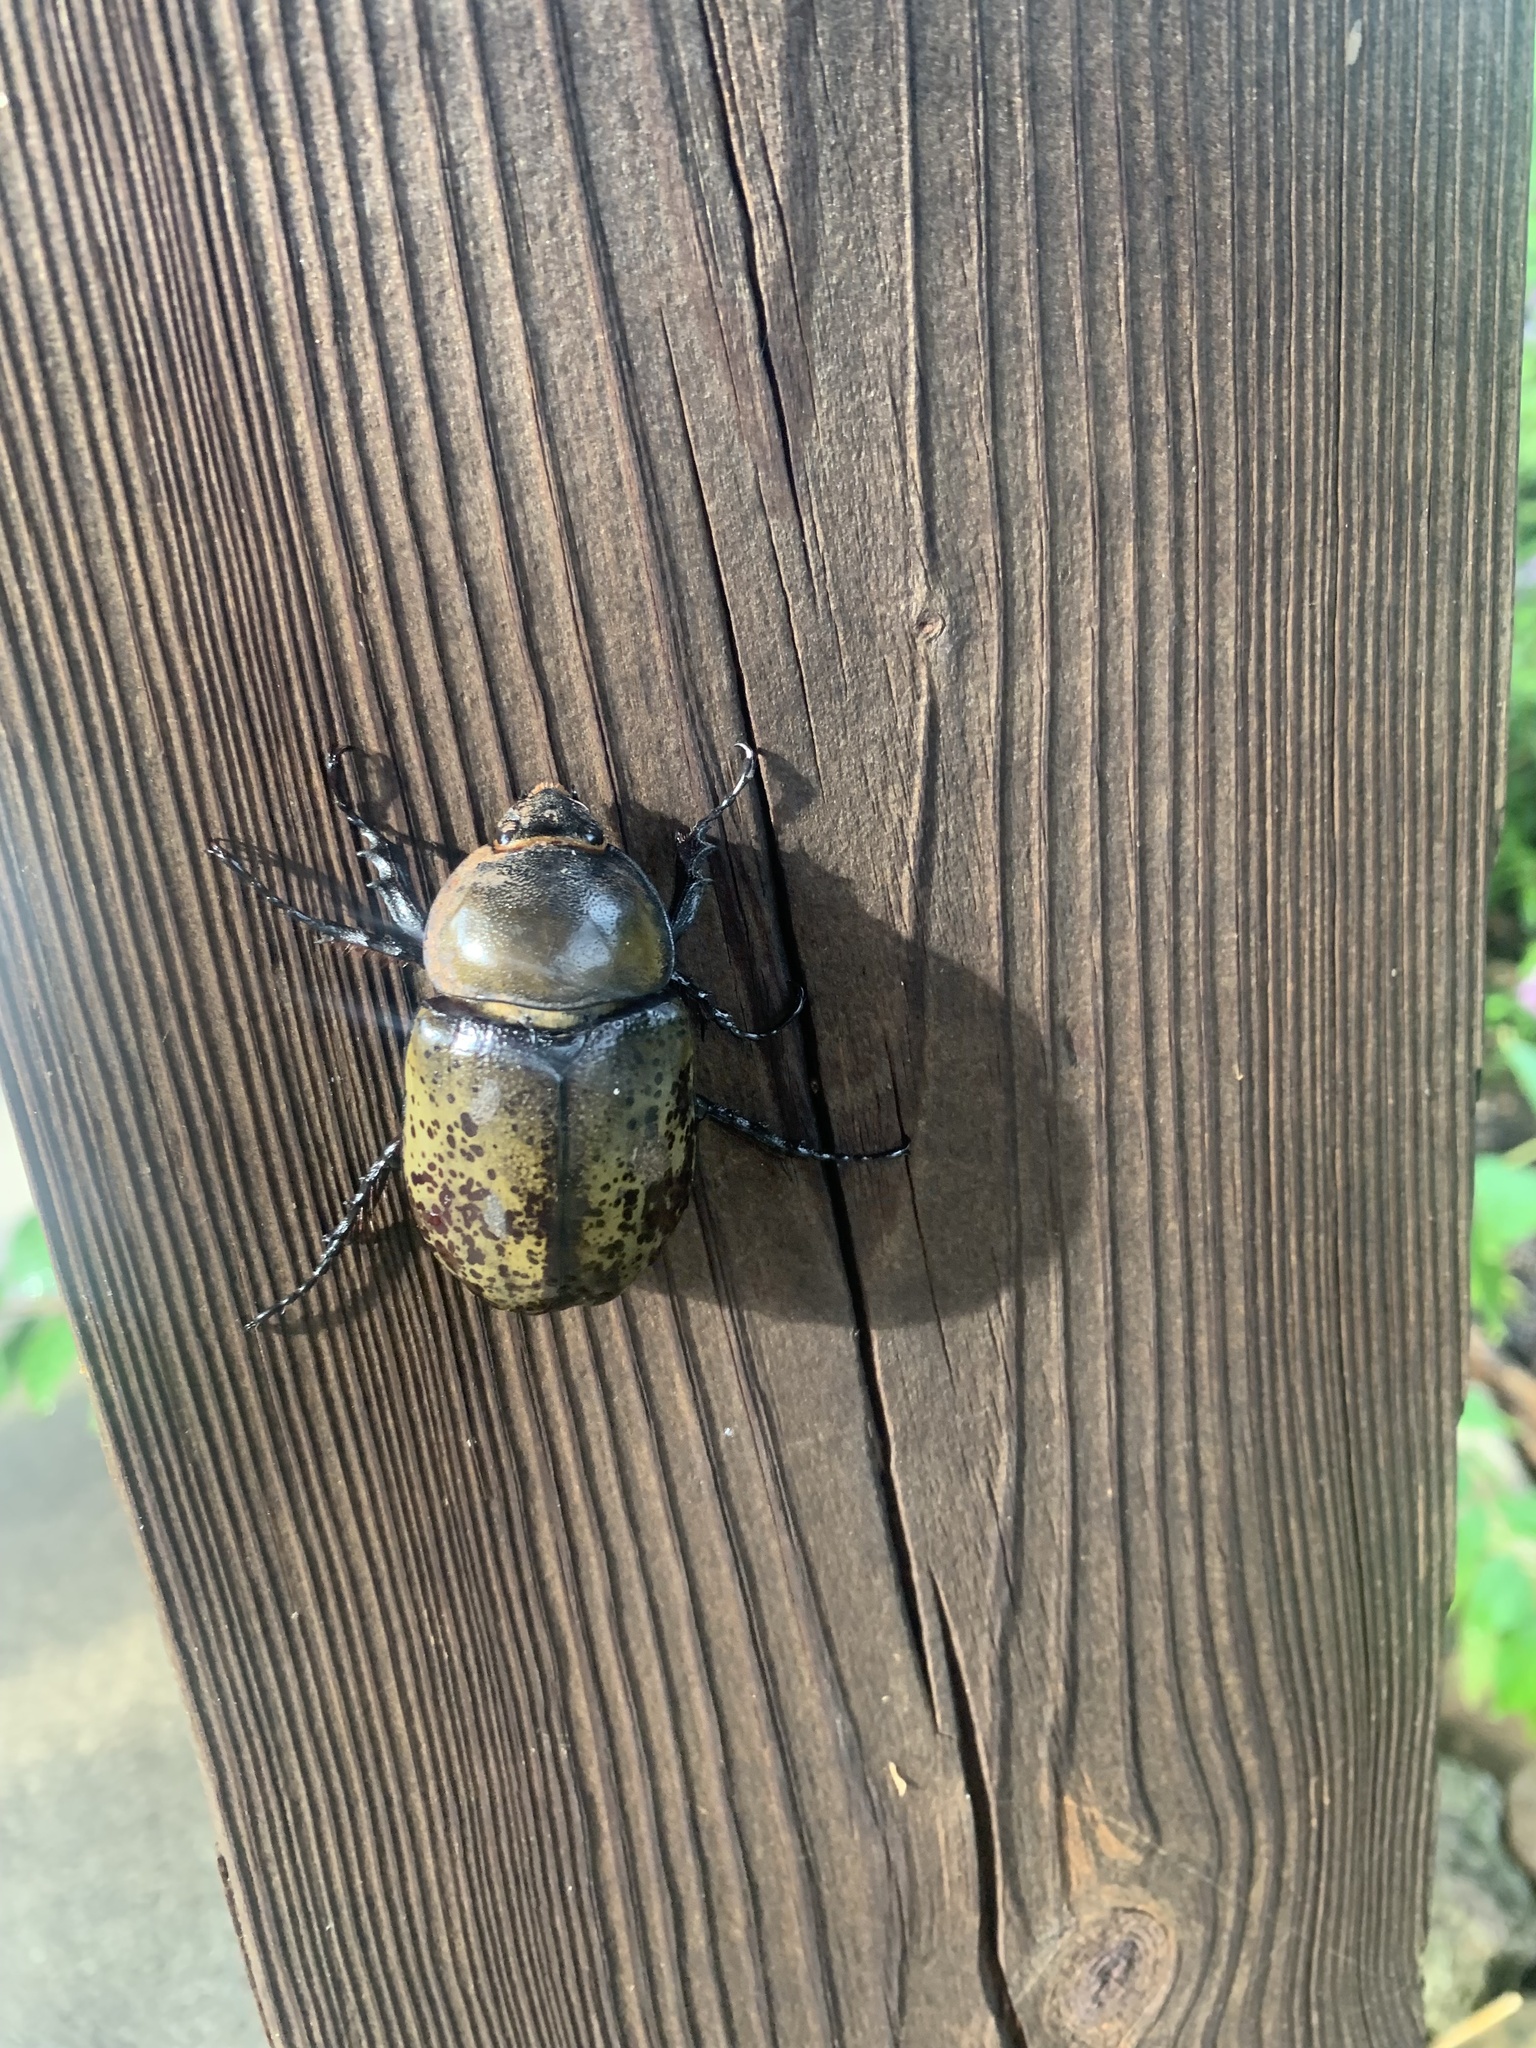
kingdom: Animalia
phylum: Arthropoda
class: Insecta
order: Coleoptera
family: Scarabaeidae
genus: Dynastes
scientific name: Dynastes tityus
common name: Eastern hercules beetle
